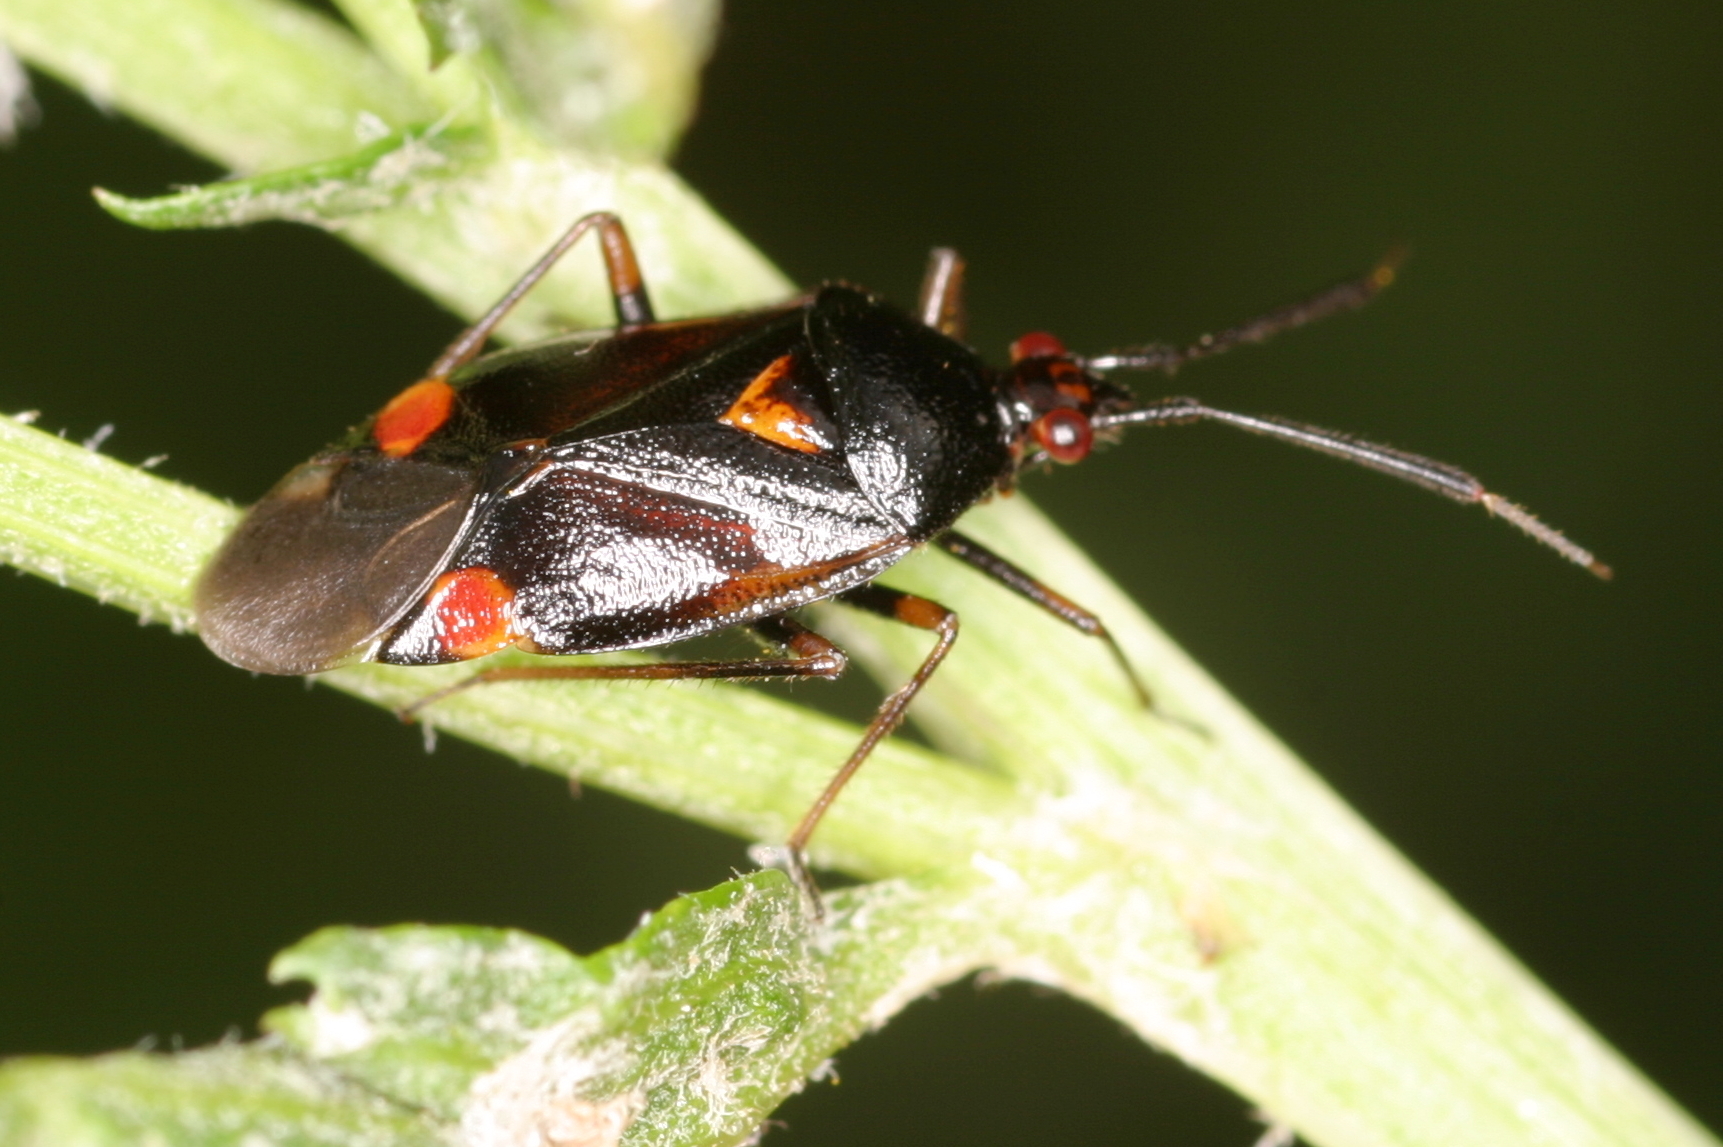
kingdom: Animalia
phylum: Arthropoda
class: Insecta
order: Hemiptera
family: Miridae
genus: Deraeocoris
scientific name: Deraeocoris ruber
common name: Plant bug
